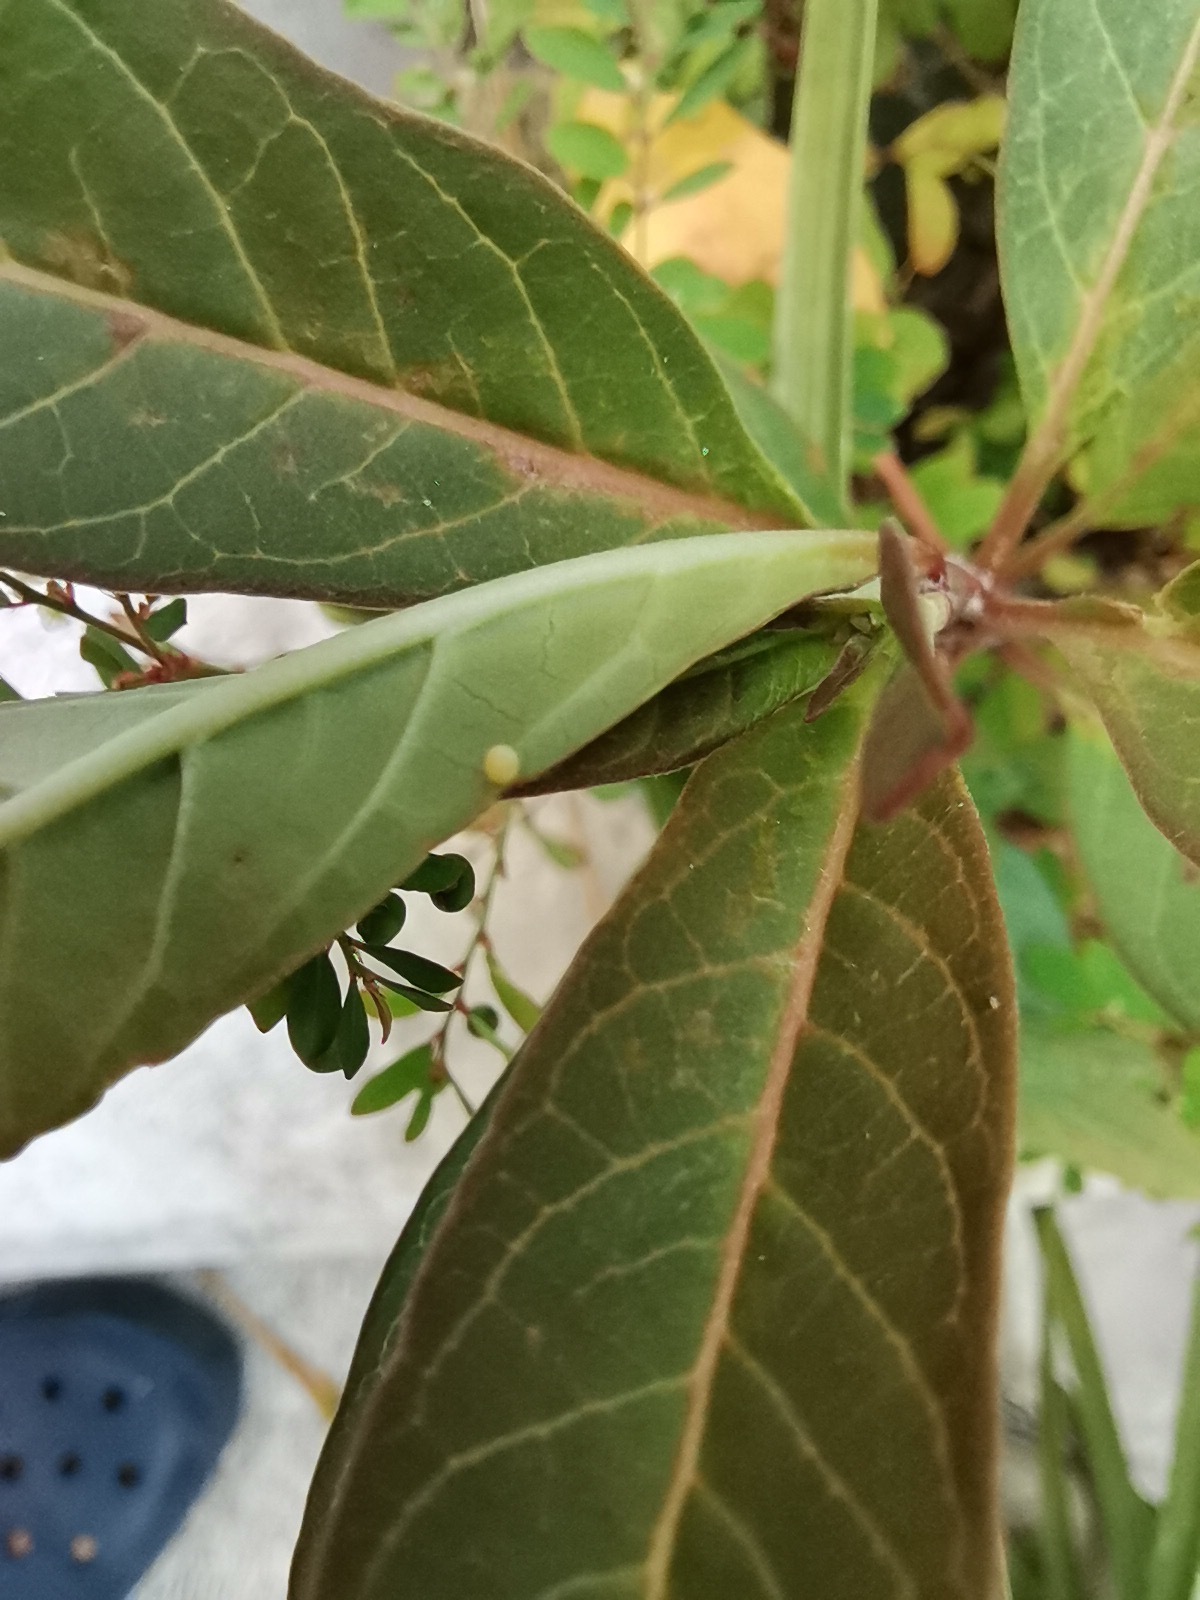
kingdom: Animalia
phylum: Arthropoda
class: Insecta
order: Lepidoptera
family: Nymphalidae
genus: Danaus
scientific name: Danaus plexippus
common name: Monarch
